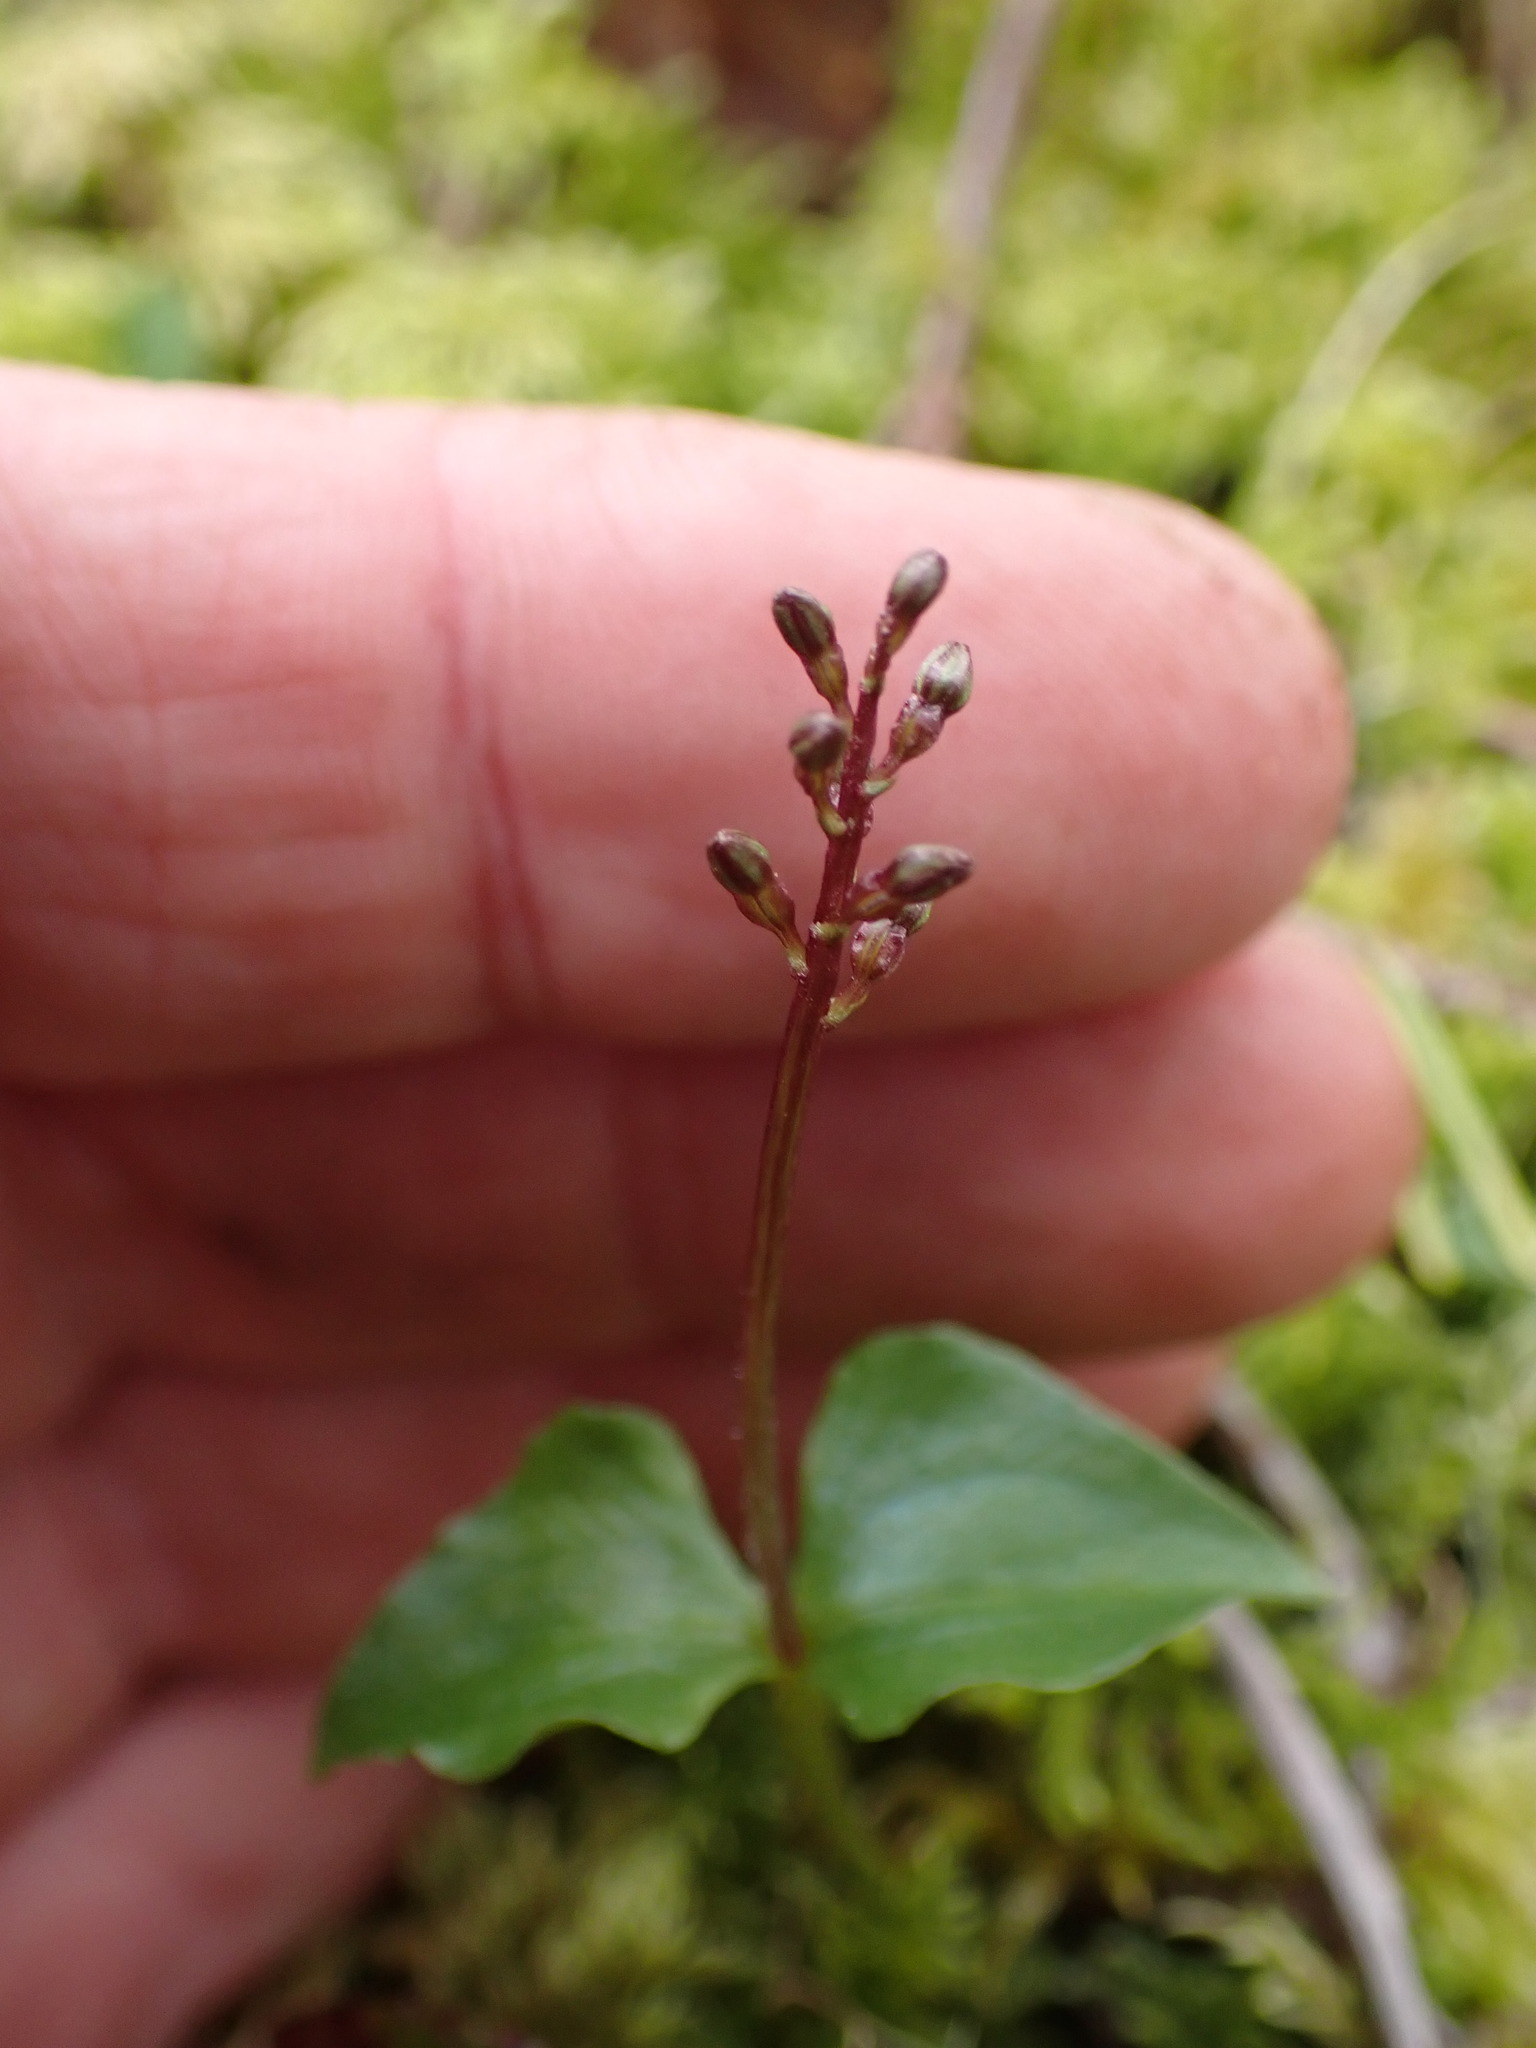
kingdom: Plantae
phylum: Tracheophyta
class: Liliopsida
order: Asparagales
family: Orchidaceae
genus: Neottia
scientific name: Neottia cordata
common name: Lesser twayblade
